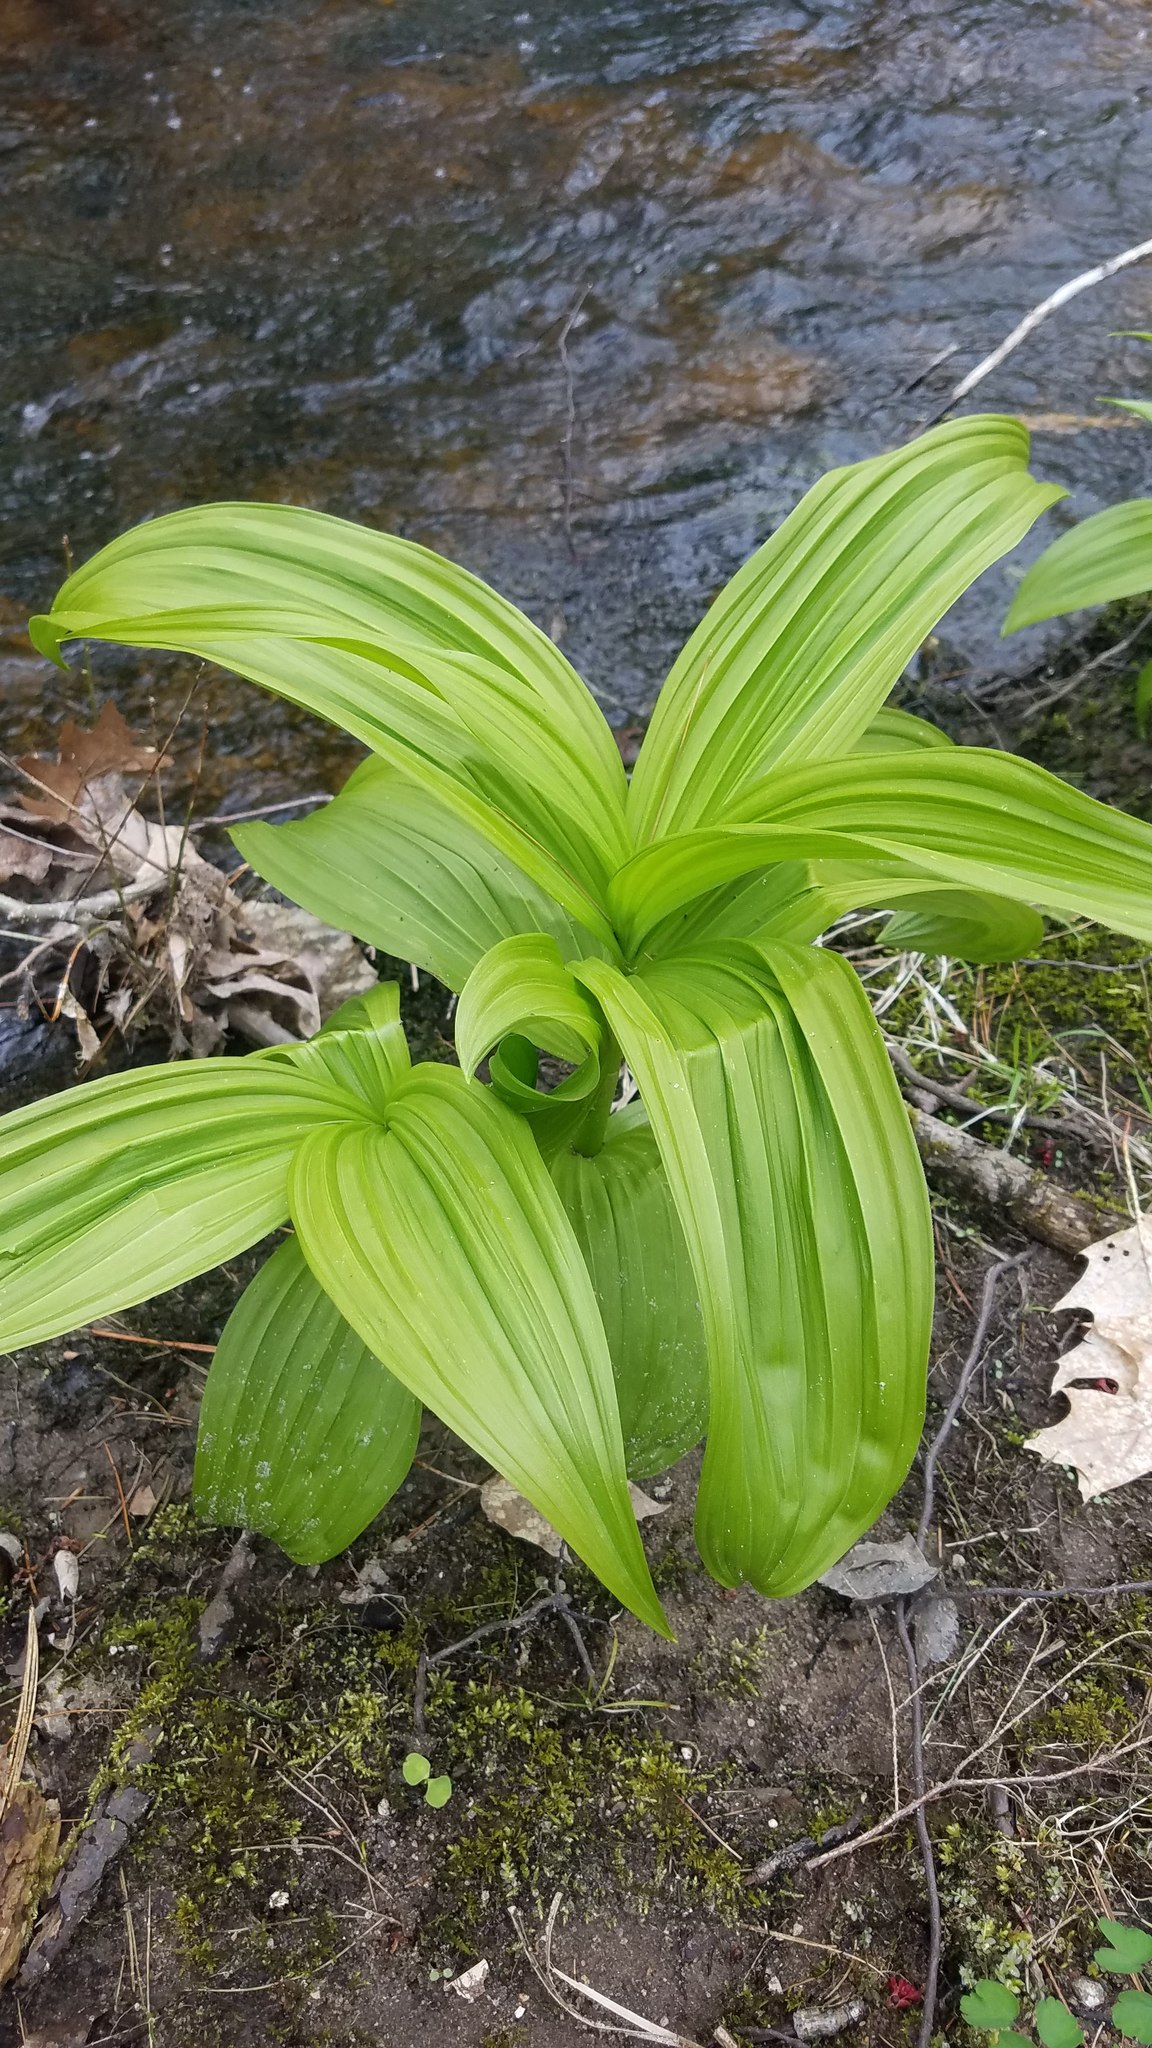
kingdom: Plantae
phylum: Tracheophyta
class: Liliopsida
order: Liliales
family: Melanthiaceae
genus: Veratrum
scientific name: Veratrum viride
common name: American false hellebore
